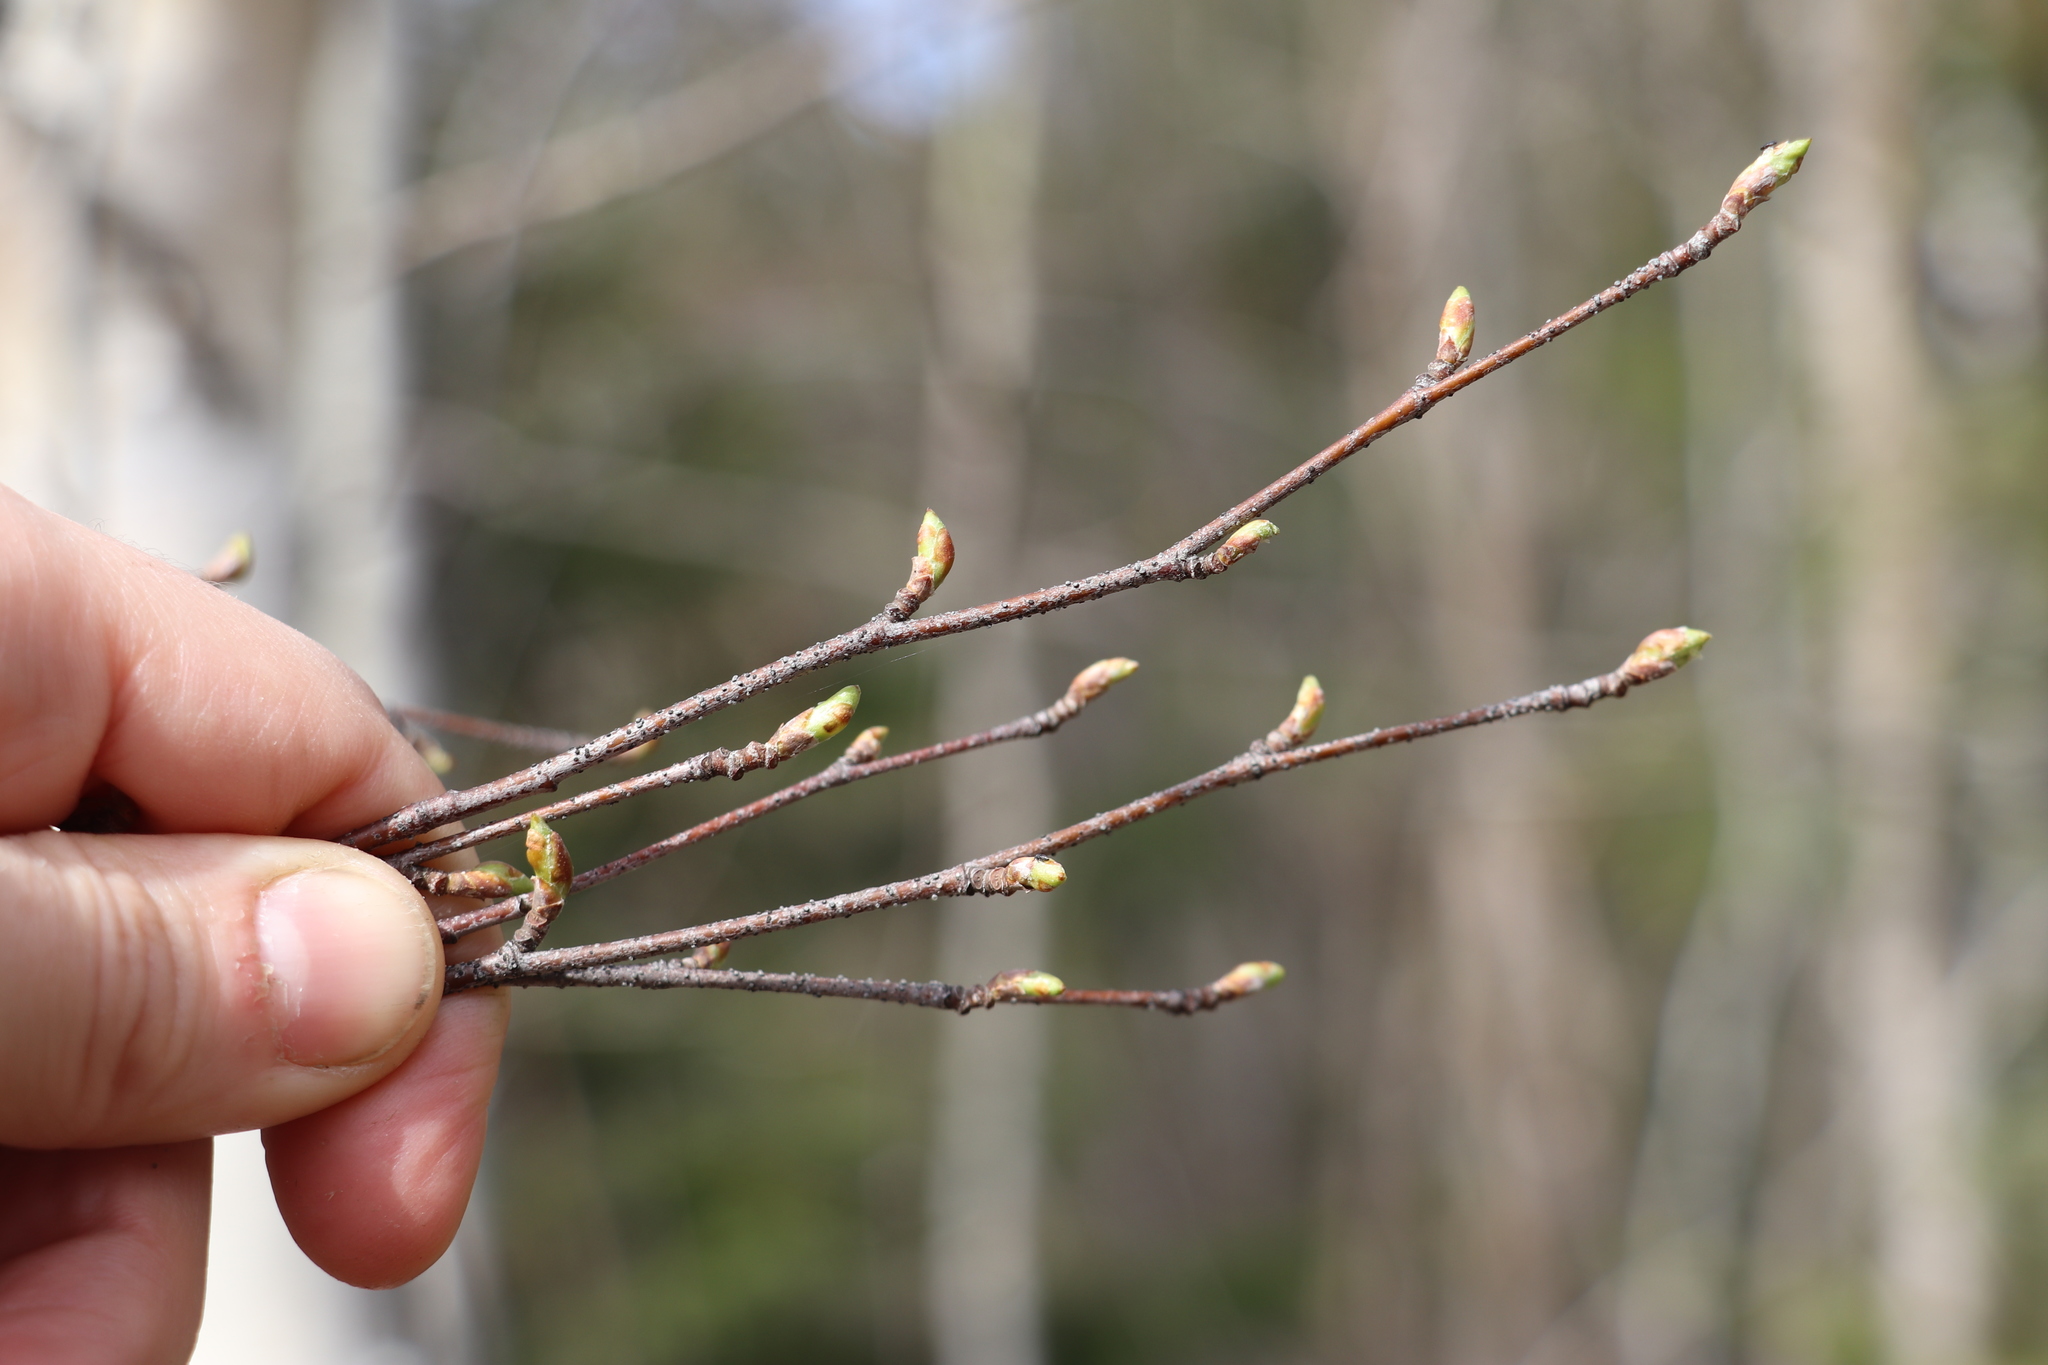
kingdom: Plantae
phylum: Tracheophyta
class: Magnoliopsida
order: Fagales
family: Betulaceae
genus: Betula
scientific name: Betula pendula
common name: Silver birch
